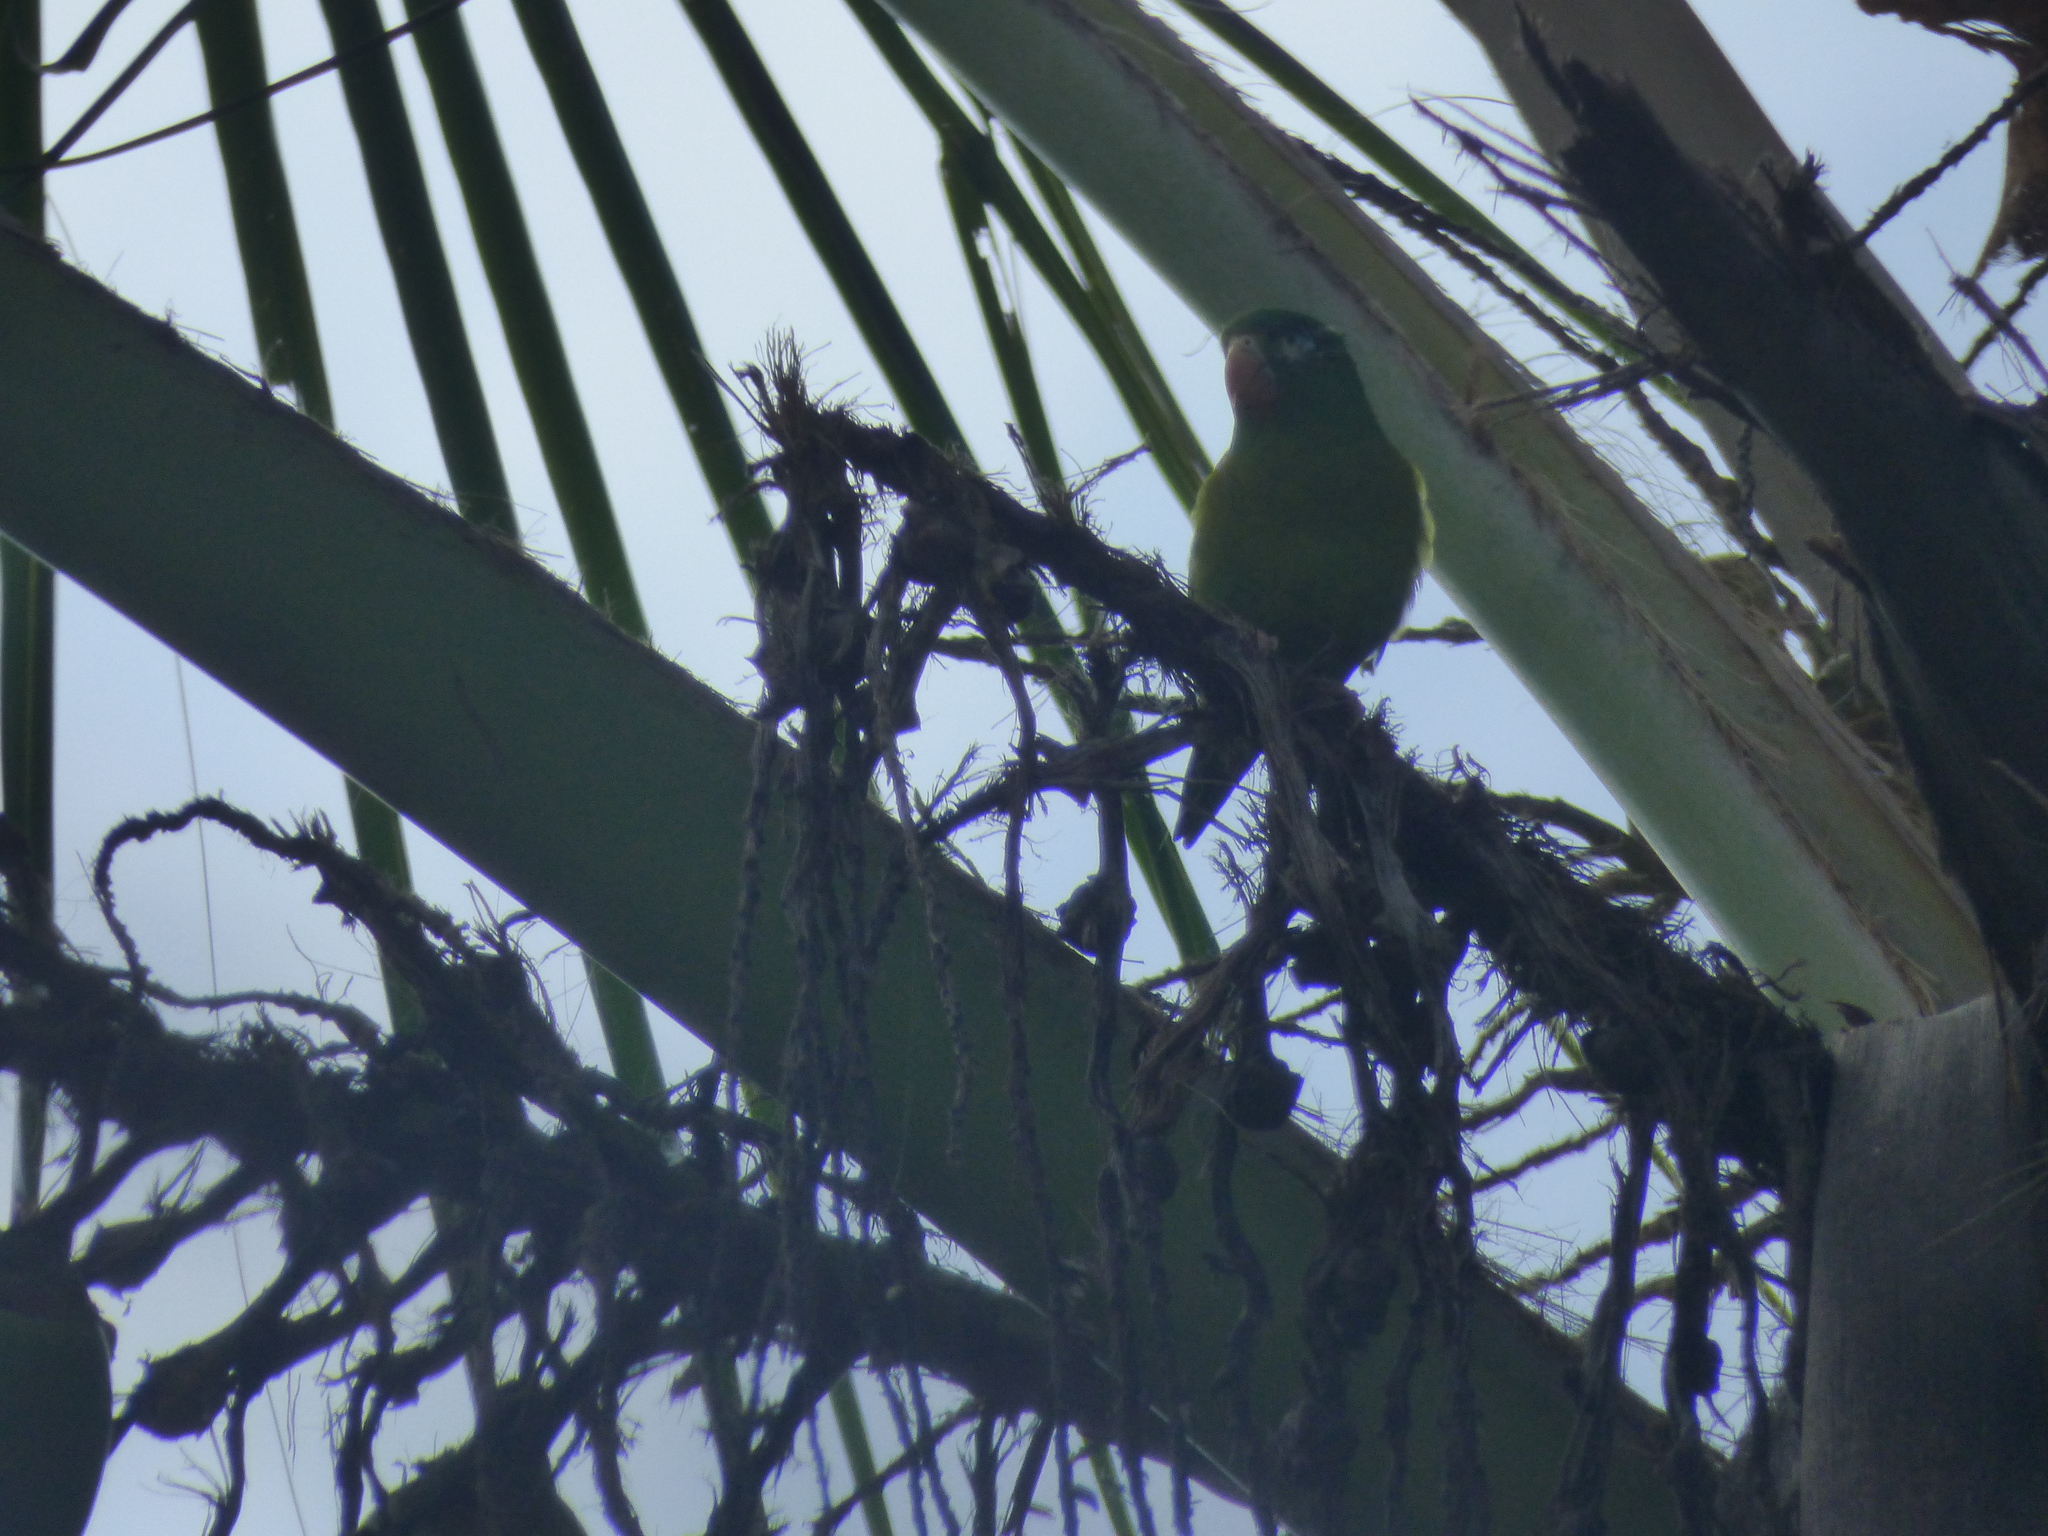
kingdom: Animalia
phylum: Chordata
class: Aves
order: Psittaciformes
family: Psittacidae
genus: Brotogeris
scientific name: Brotogeris jugularis
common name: Orange-chinned parakeet
